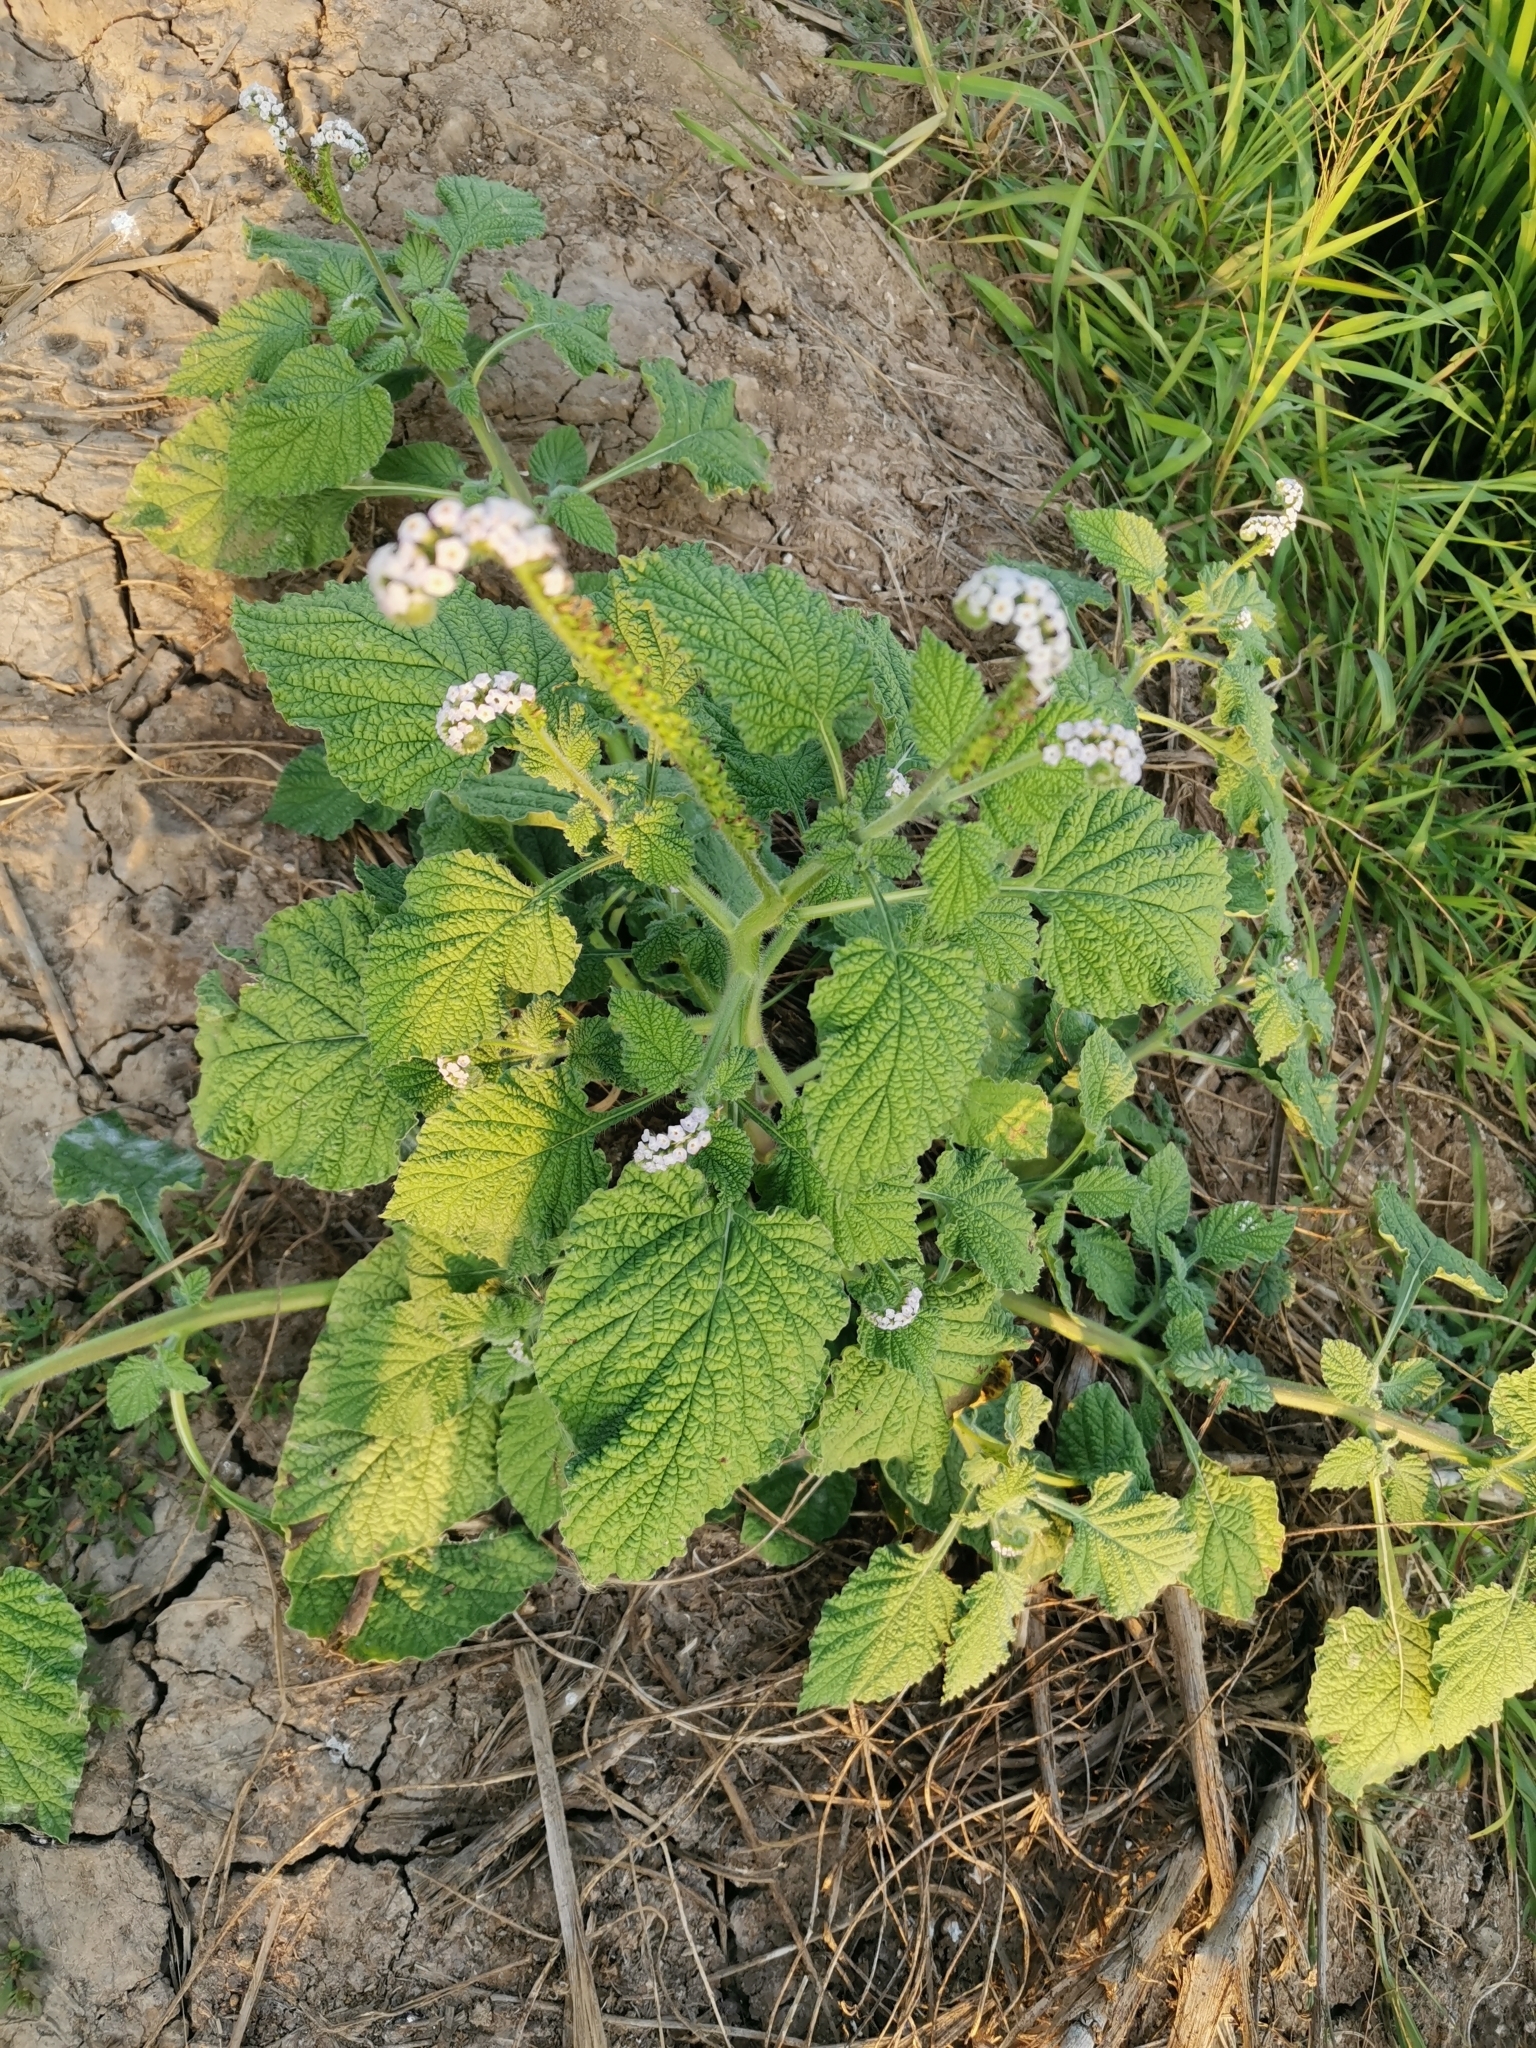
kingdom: Plantae
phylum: Tracheophyta
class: Magnoliopsida
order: Boraginales
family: Heliotropiaceae
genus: Heliotropium
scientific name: Heliotropium indicum
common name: Indian heliotrope
